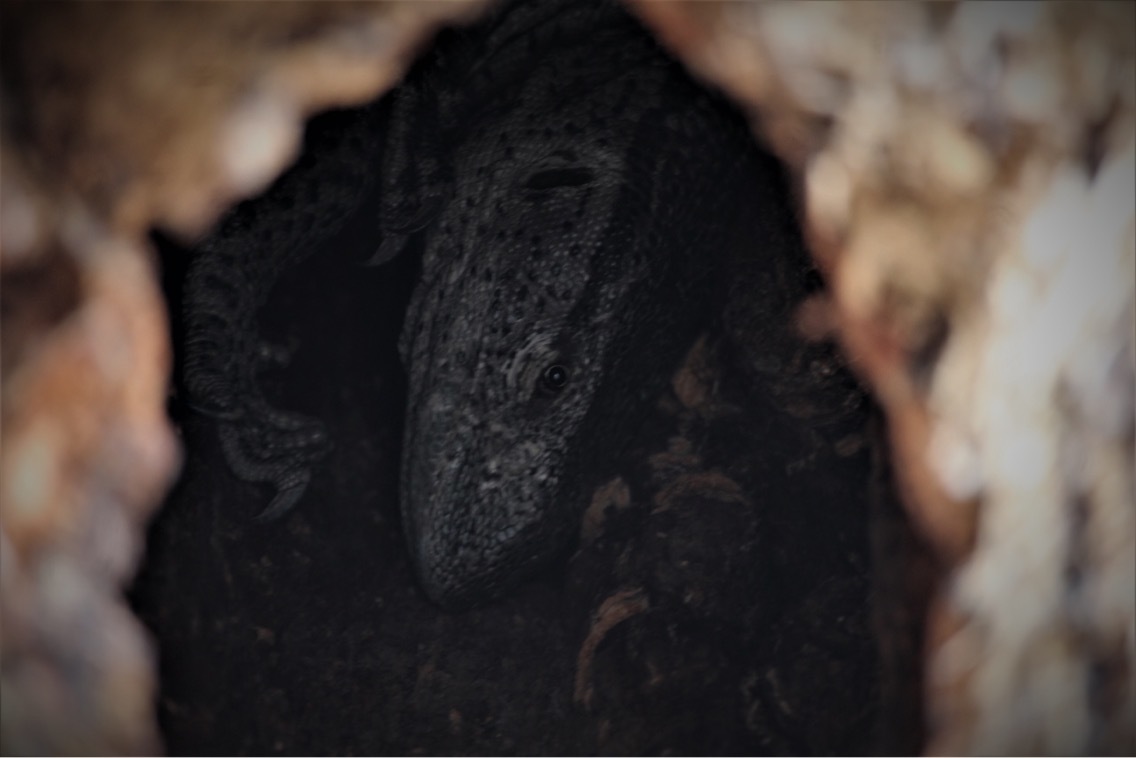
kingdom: Animalia
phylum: Chordata
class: Squamata
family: Varanidae
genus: Varanus
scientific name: Varanus albigularis
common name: White-throated monitor
